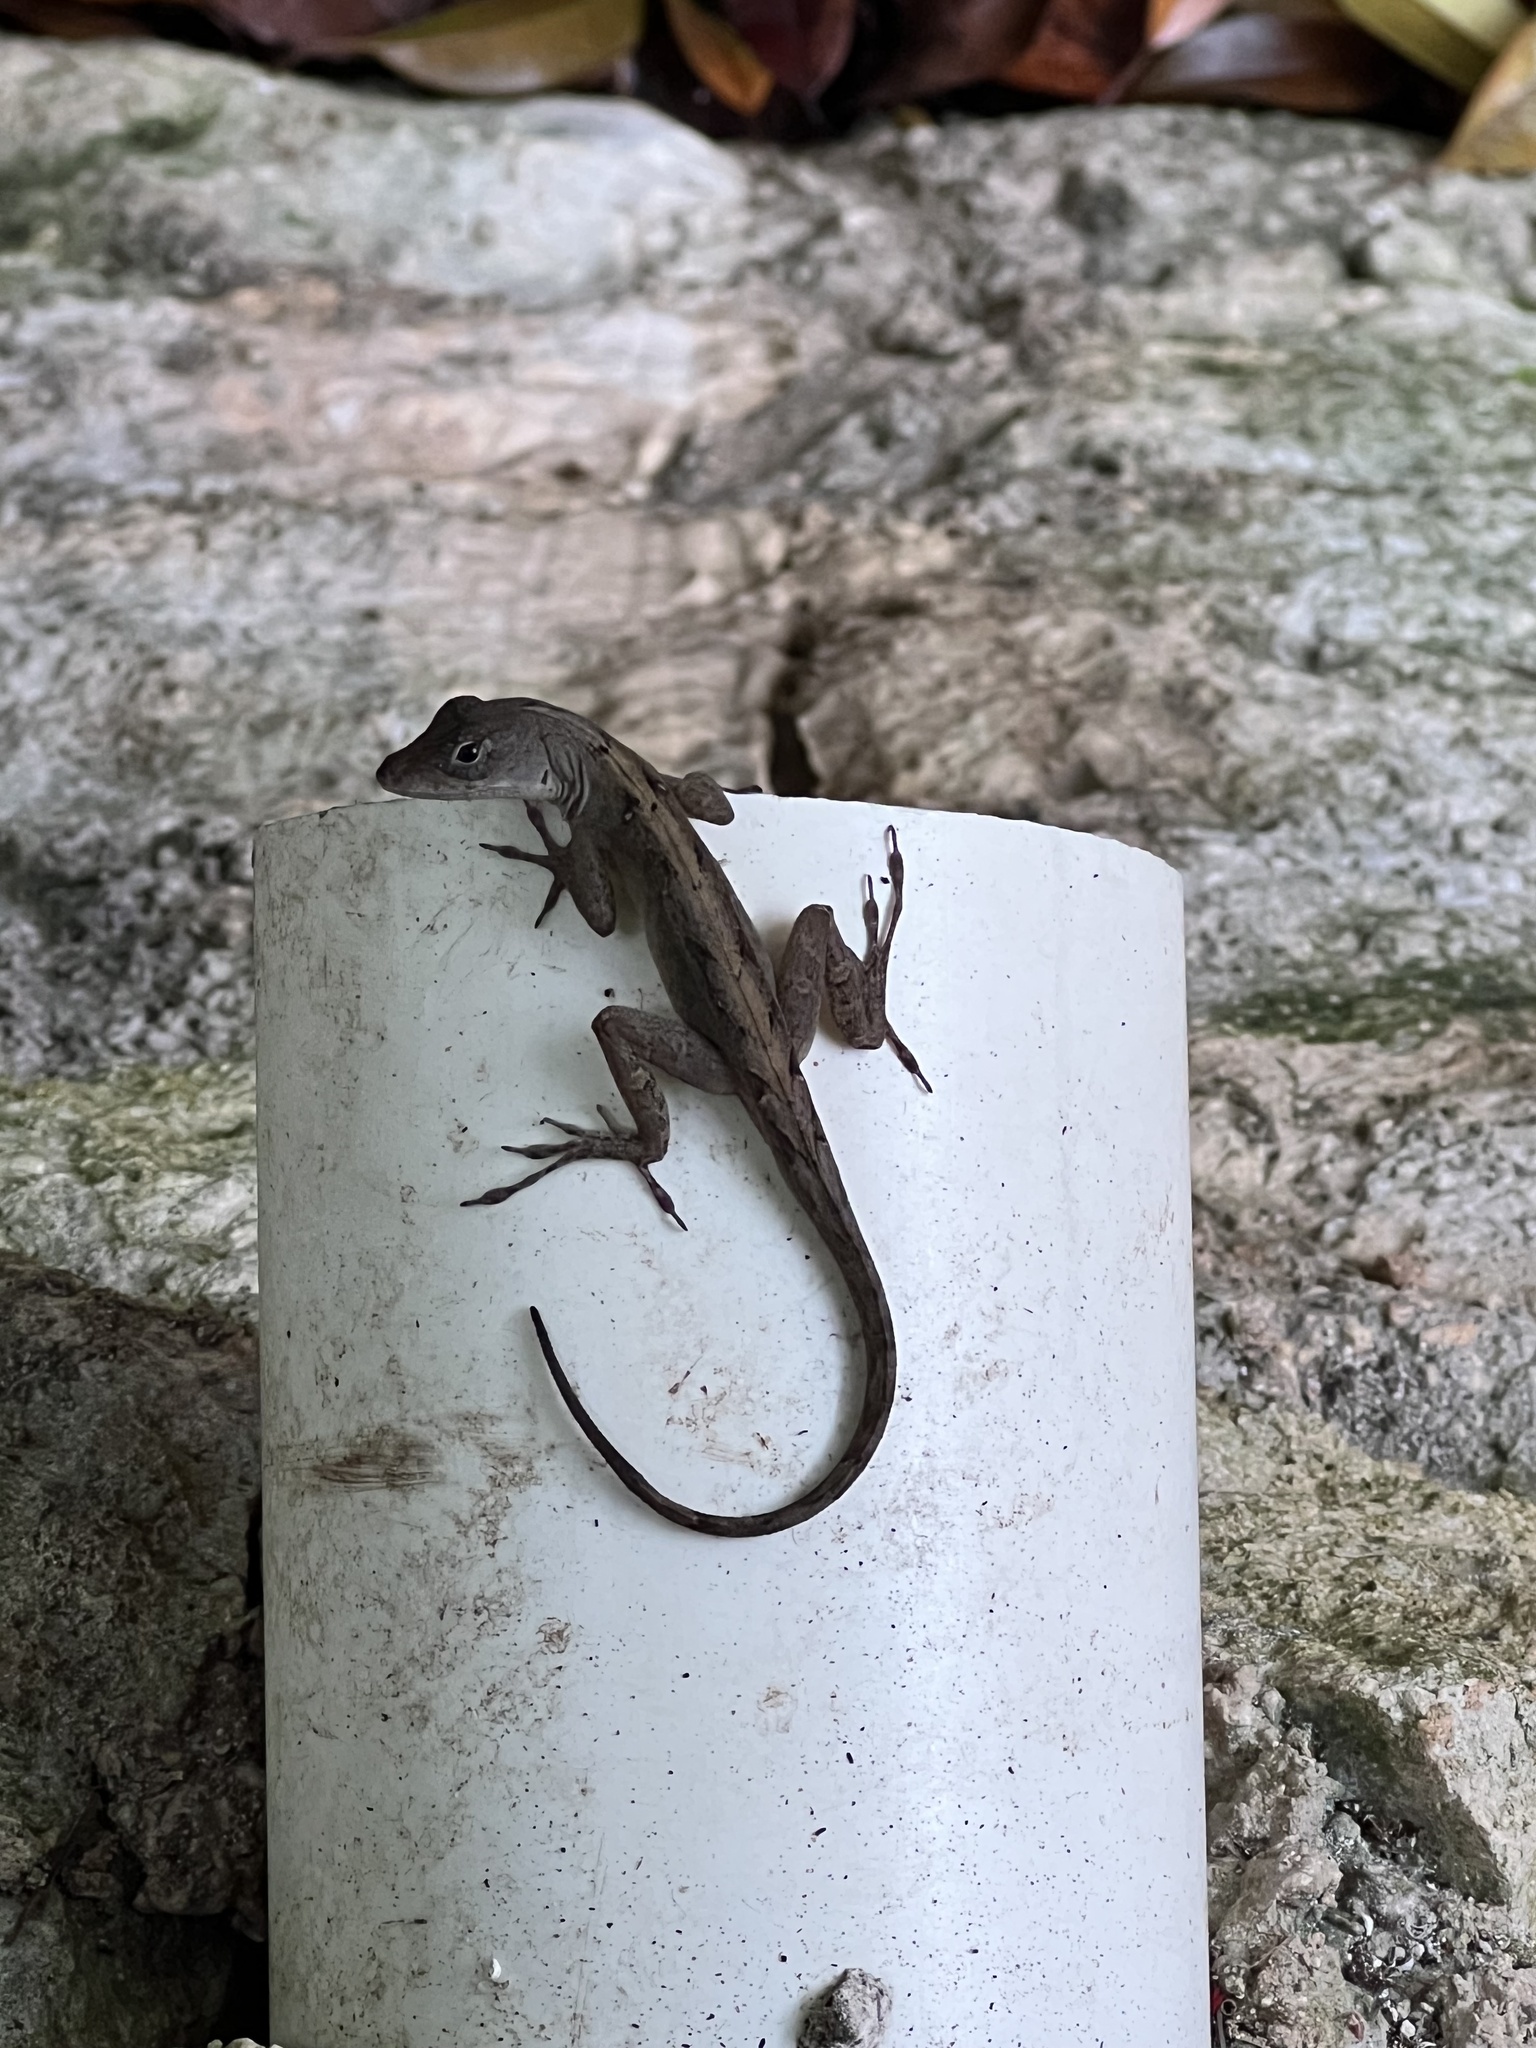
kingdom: Animalia
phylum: Chordata
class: Squamata
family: Dactyloidae
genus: Anolis
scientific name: Anolis sagrei
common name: Brown anole
